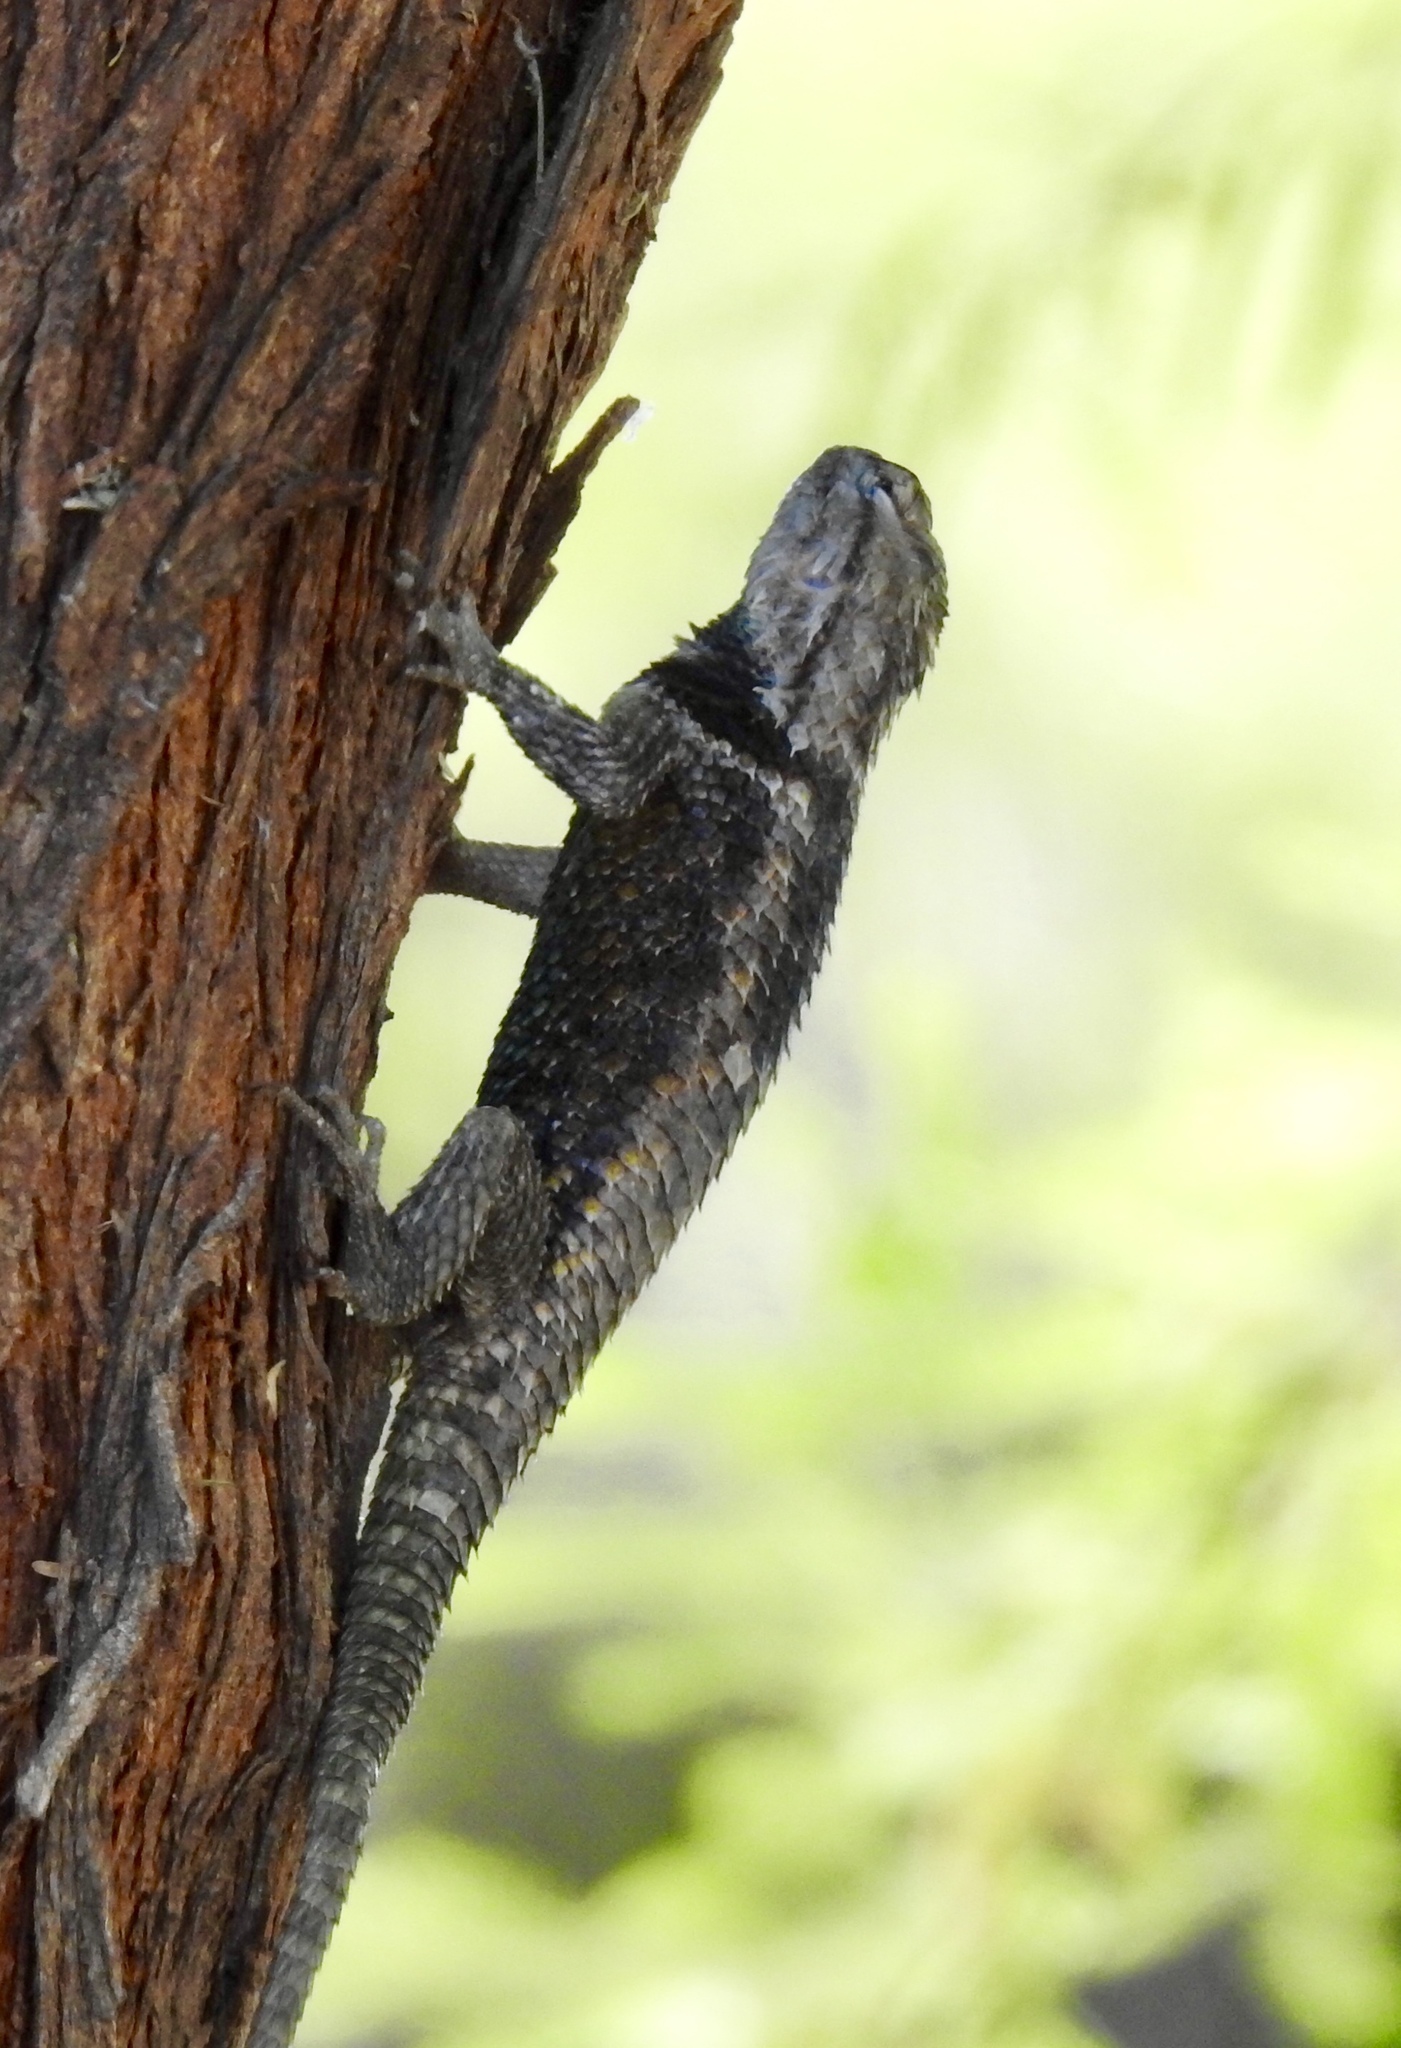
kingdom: Animalia
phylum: Chordata
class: Squamata
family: Phrynosomatidae
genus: Sceloporus
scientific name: Sceloporus magister
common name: Desert spiny lizard
